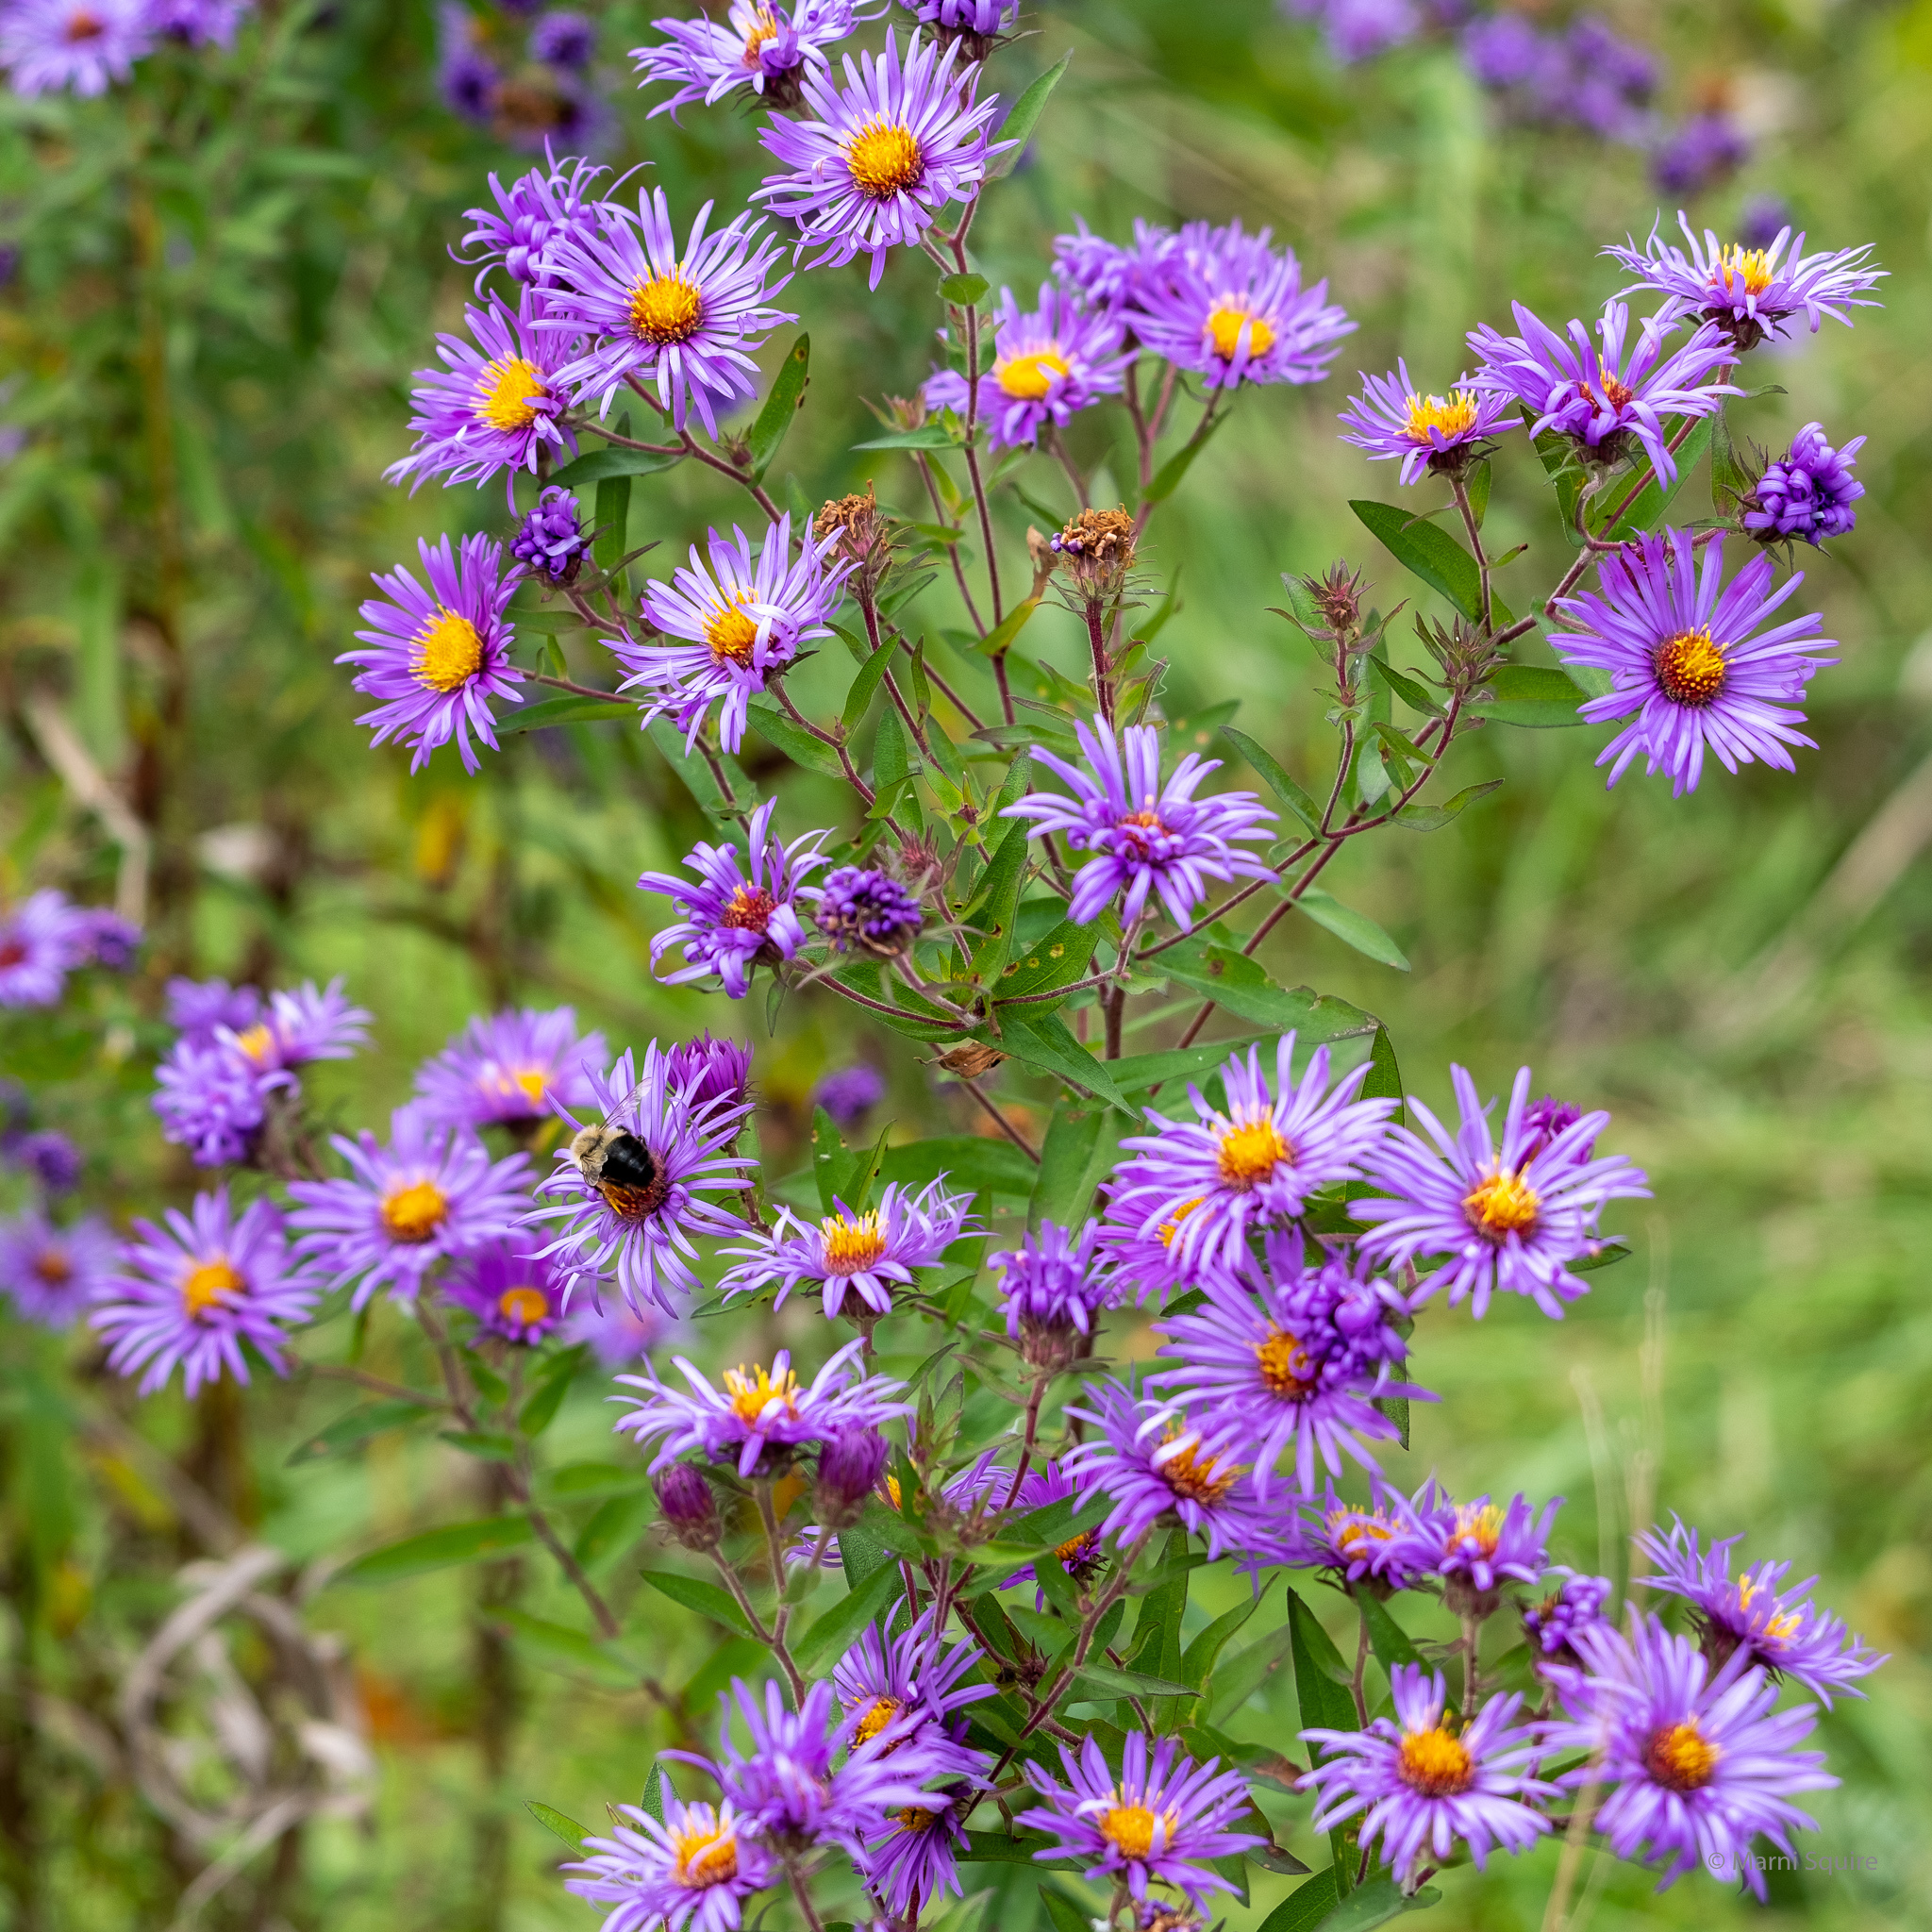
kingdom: Plantae
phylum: Tracheophyta
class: Magnoliopsida
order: Asterales
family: Asteraceae
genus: Symphyotrichum
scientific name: Symphyotrichum novae-angliae
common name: Michaelmas daisy
